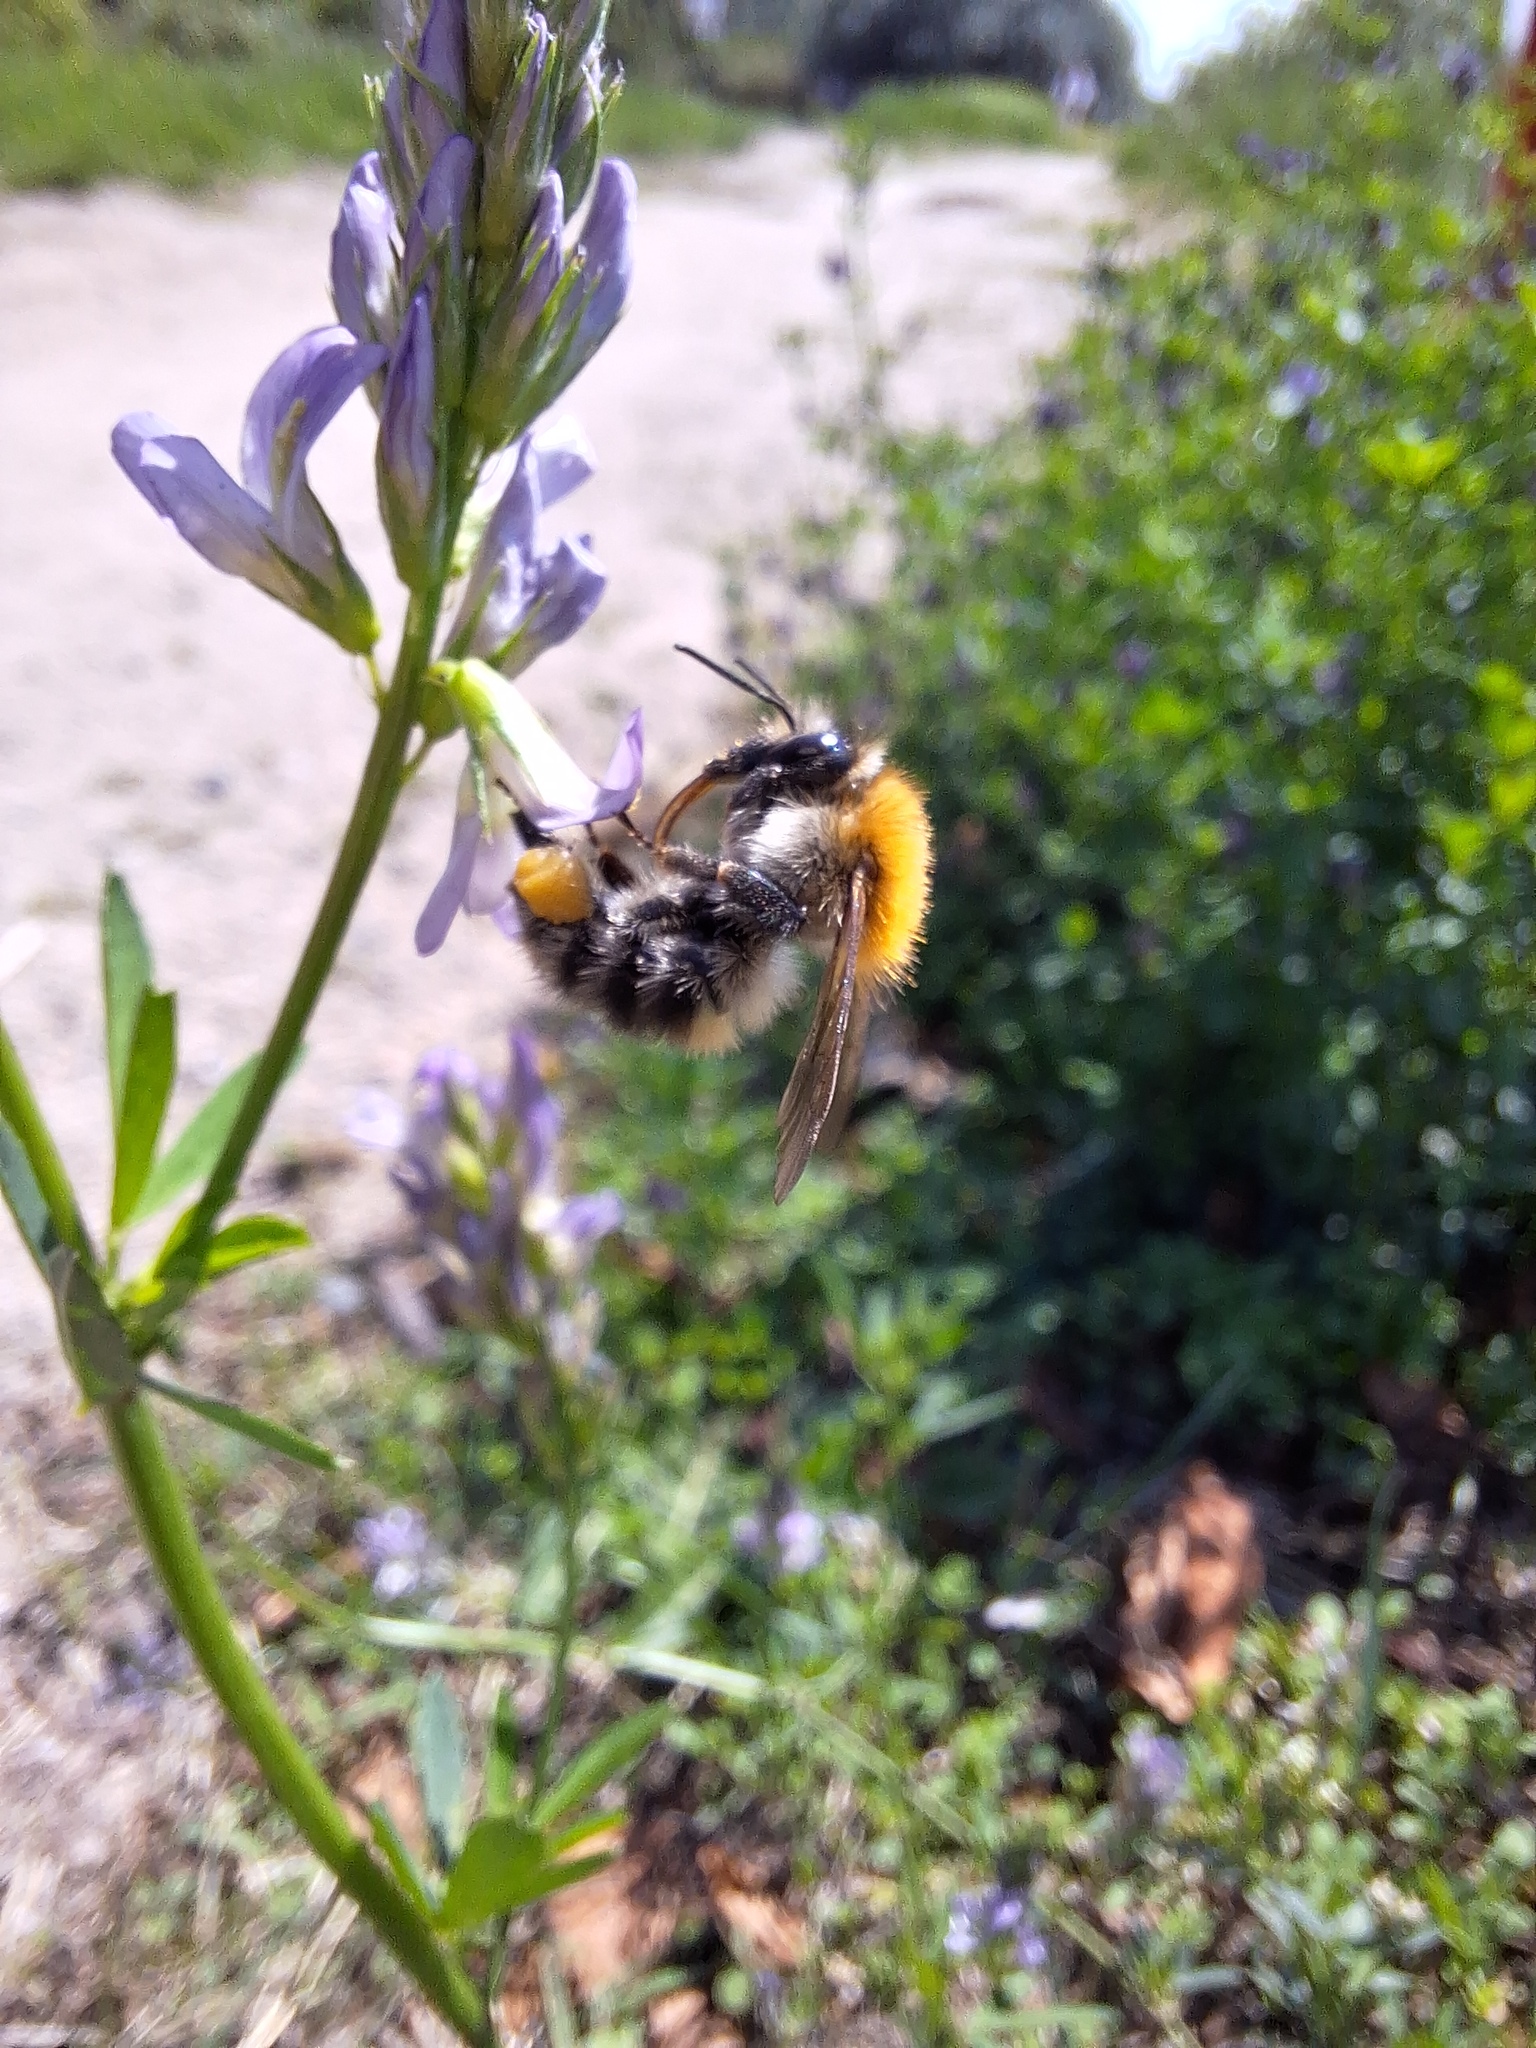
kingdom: Animalia
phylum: Arthropoda
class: Insecta
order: Hymenoptera
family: Apidae
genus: Bombus
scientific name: Bombus pascuorum
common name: Common carder bee
